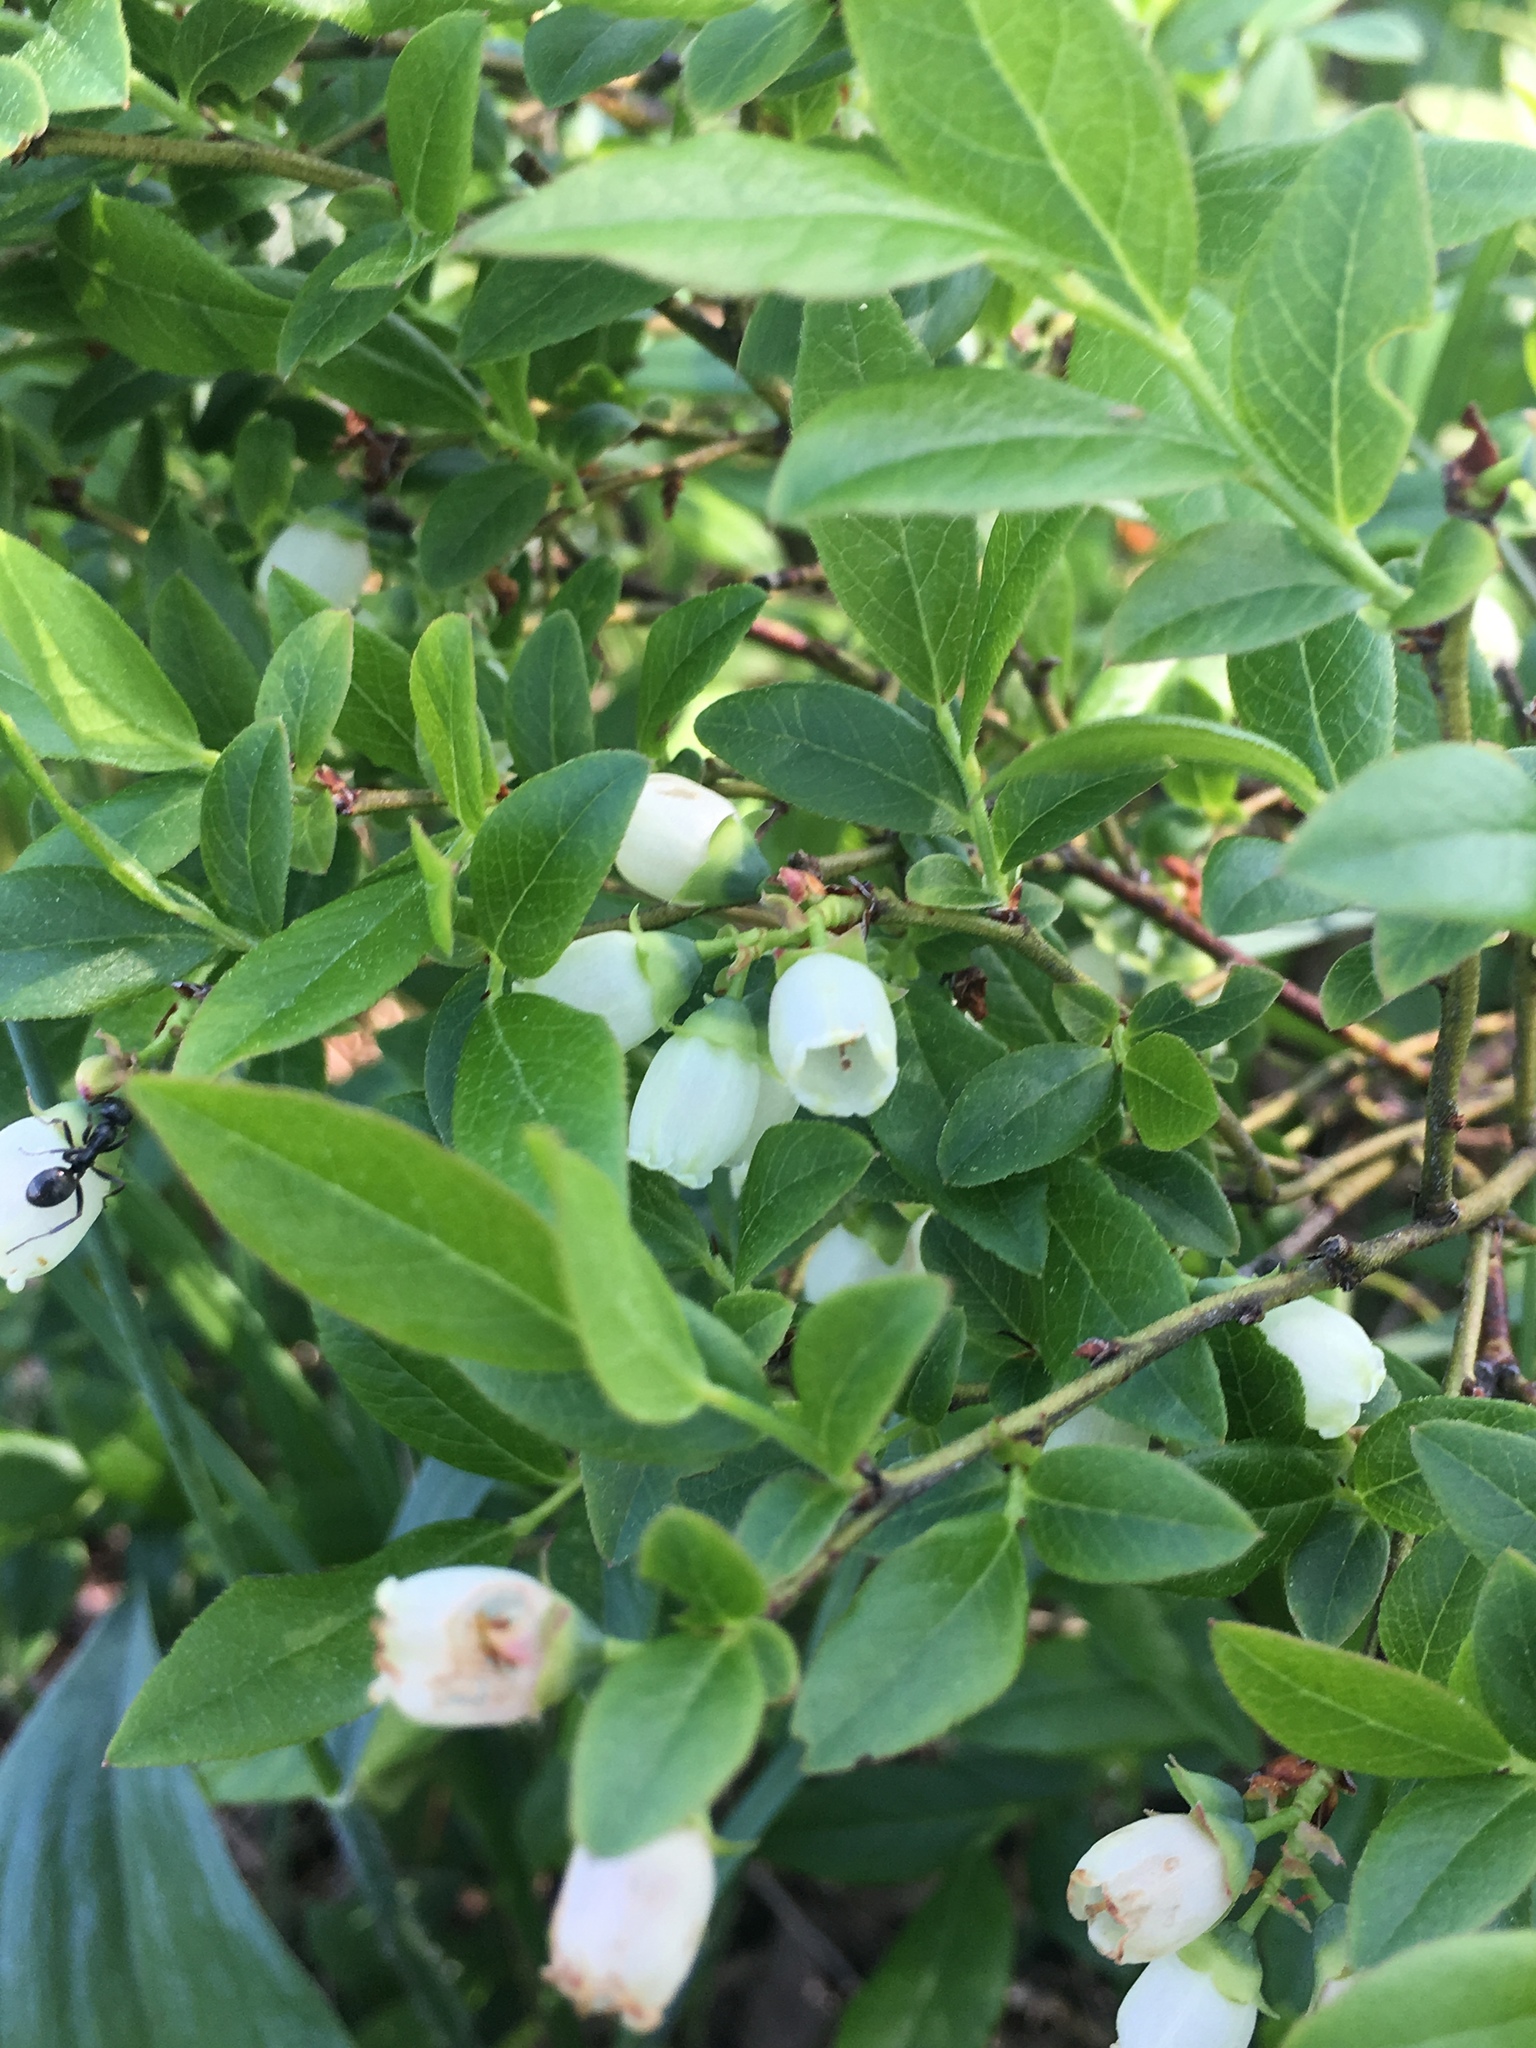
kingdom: Plantae
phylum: Tracheophyta
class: Magnoliopsida
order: Ericales
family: Ericaceae
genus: Vaccinium
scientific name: Vaccinium myrtilloides
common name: Canada blueberry
